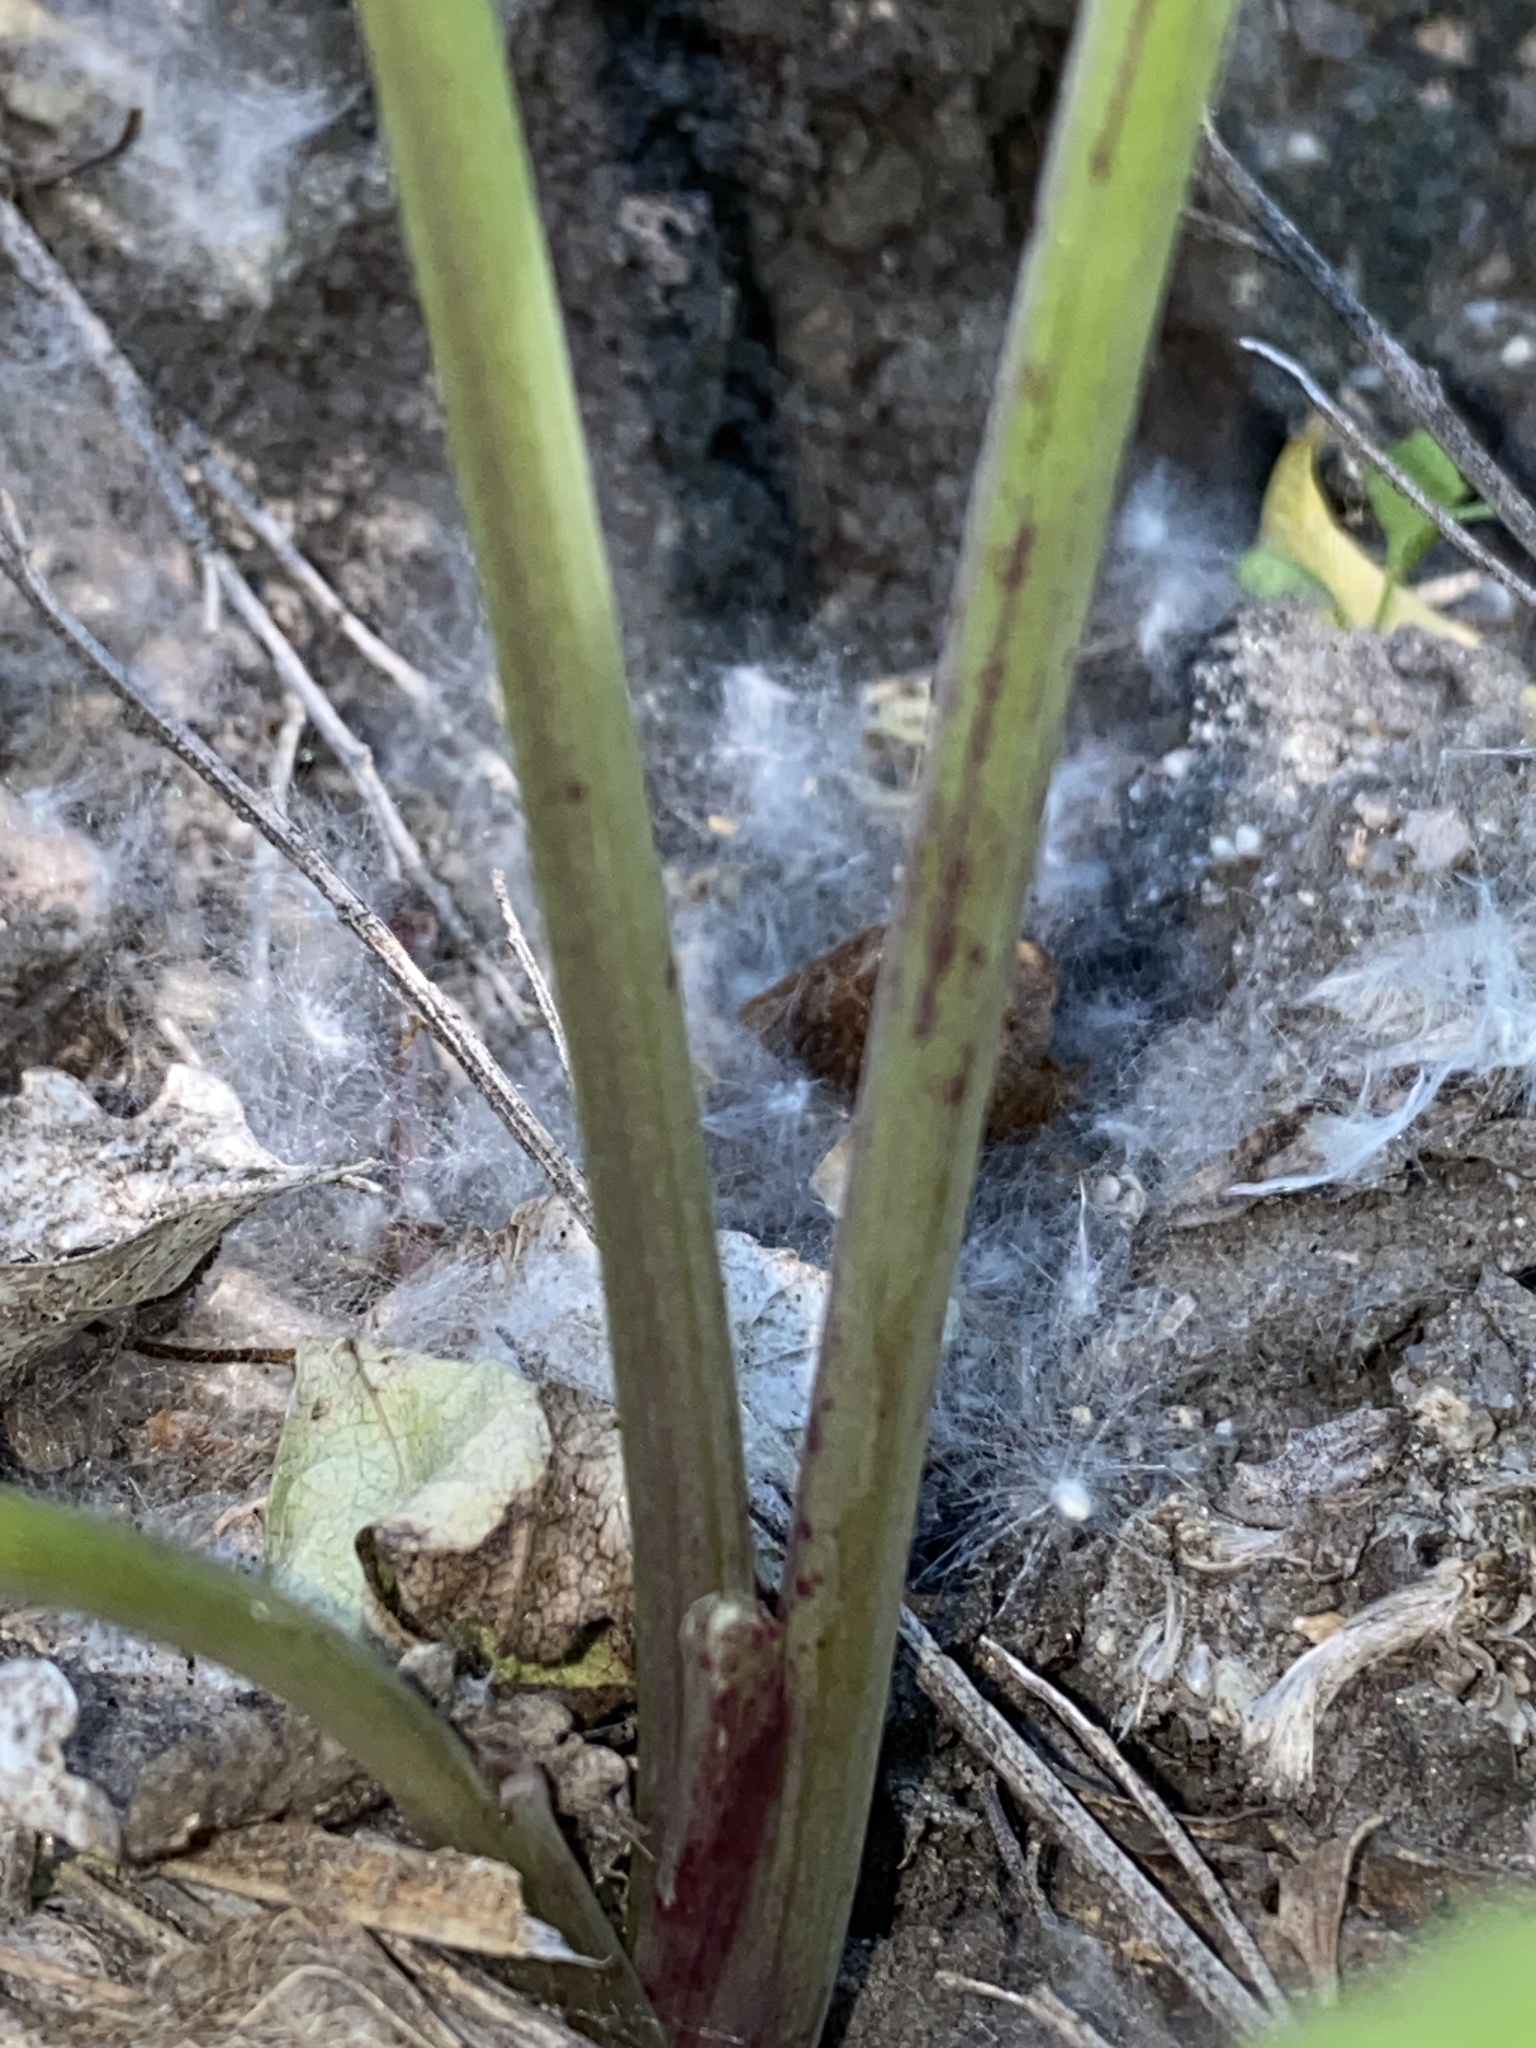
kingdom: Plantae
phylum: Tracheophyta
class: Magnoliopsida
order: Apiales
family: Apiaceae
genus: Conium
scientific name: Conium maculatum
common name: Hemlock
